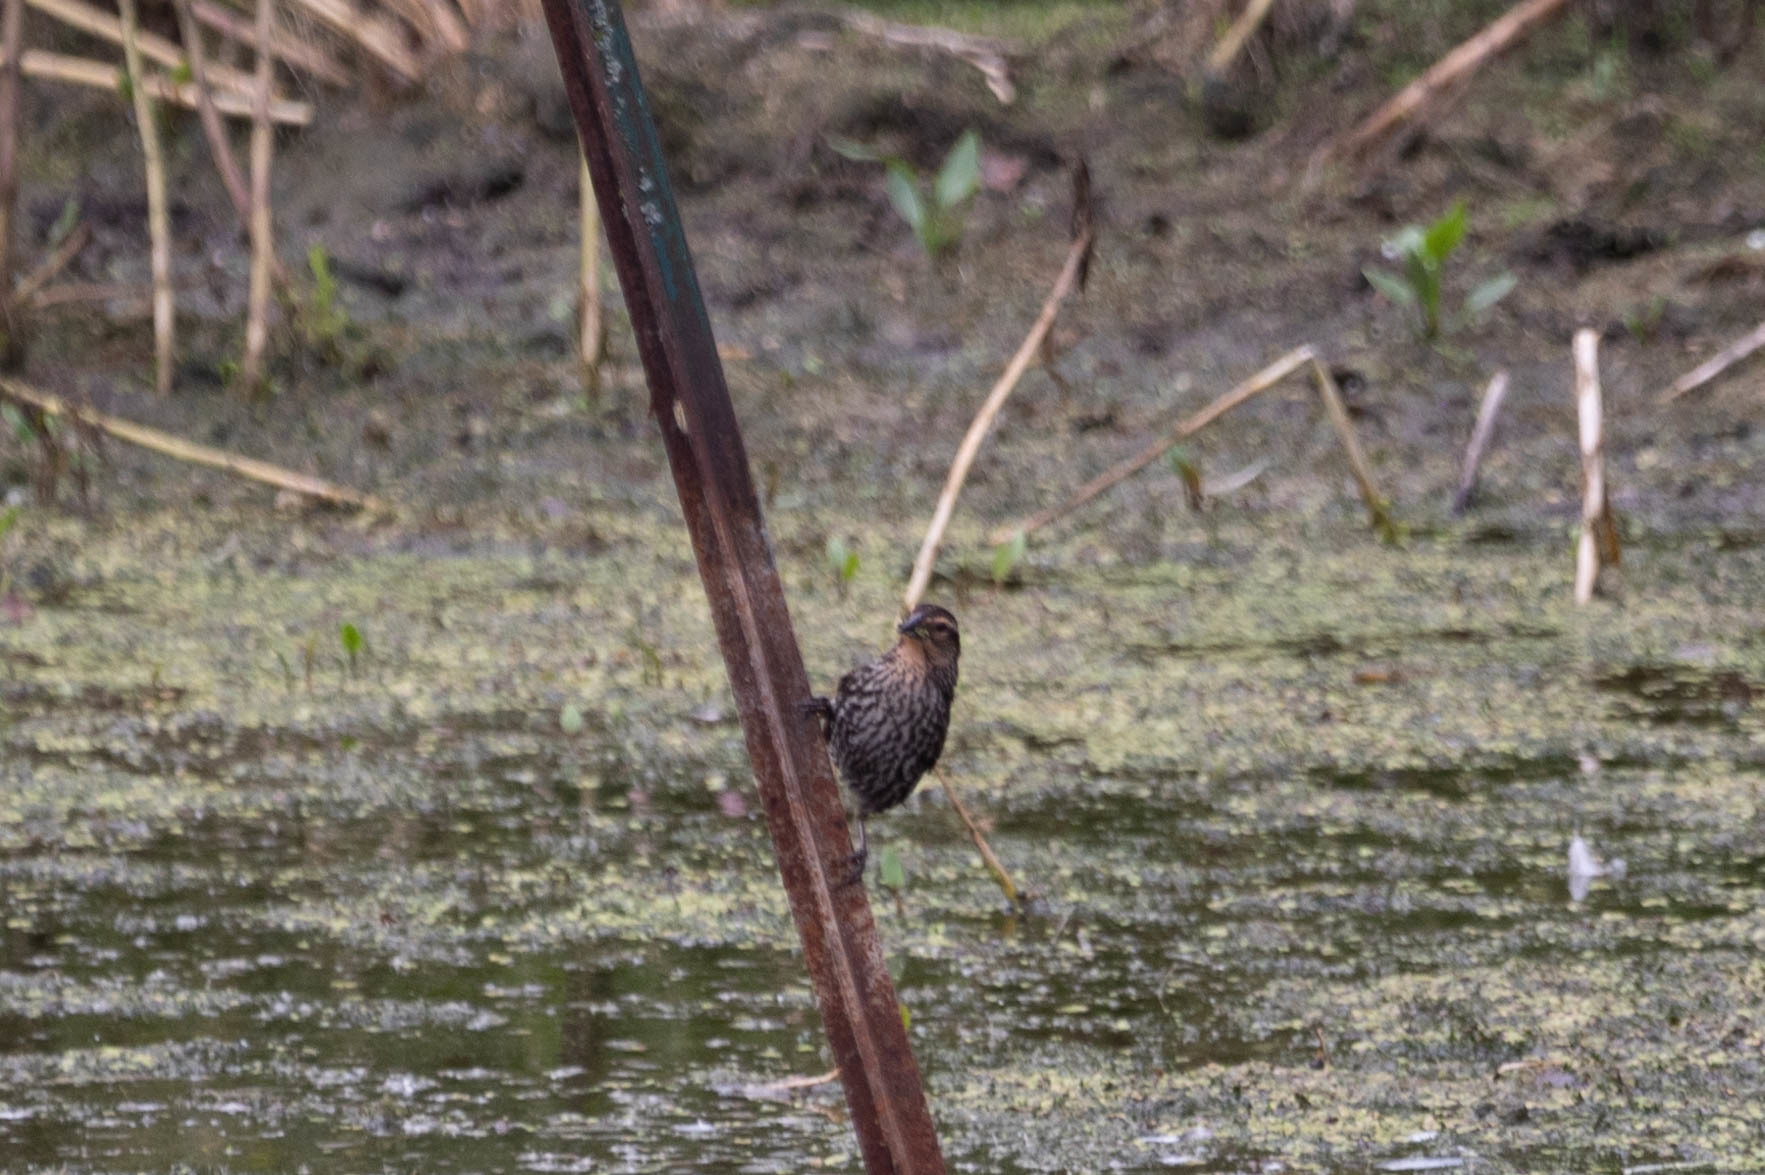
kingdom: Animalia
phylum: Chordata
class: Aves
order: Passeriformes
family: Icteridae
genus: Agelaius
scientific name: Agelaius phoeniceus
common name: Red-winged blackbird
